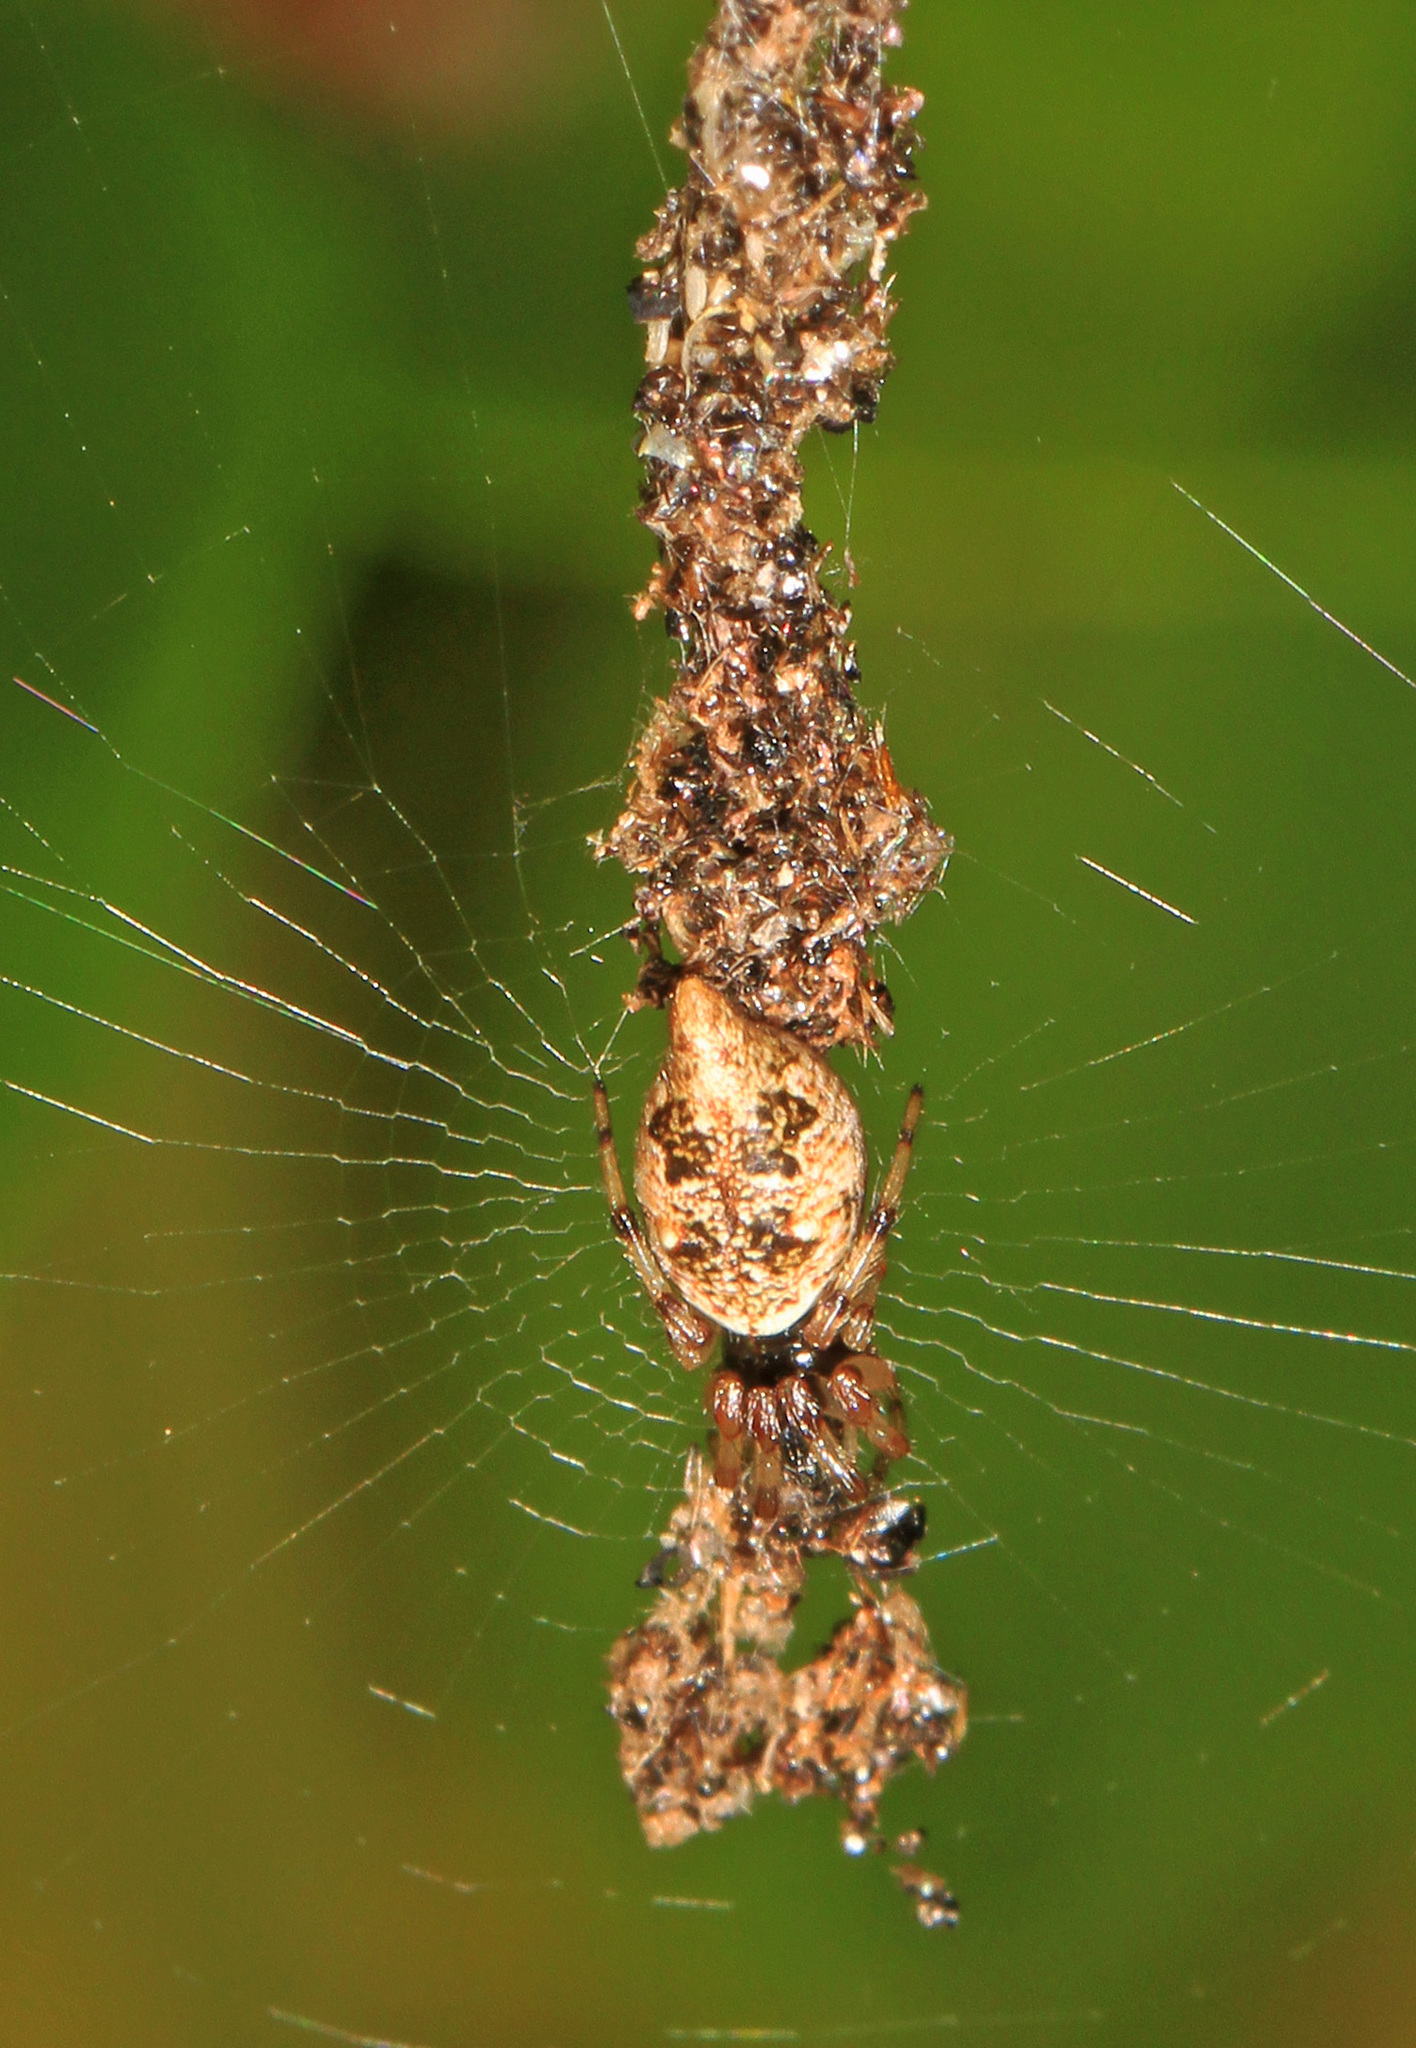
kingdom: Animalia
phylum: Arthropoda
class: Arachnida
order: Araneae
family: Araneidae
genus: Cyclosa
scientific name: Cyclosa turbinata
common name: Orb weavers
